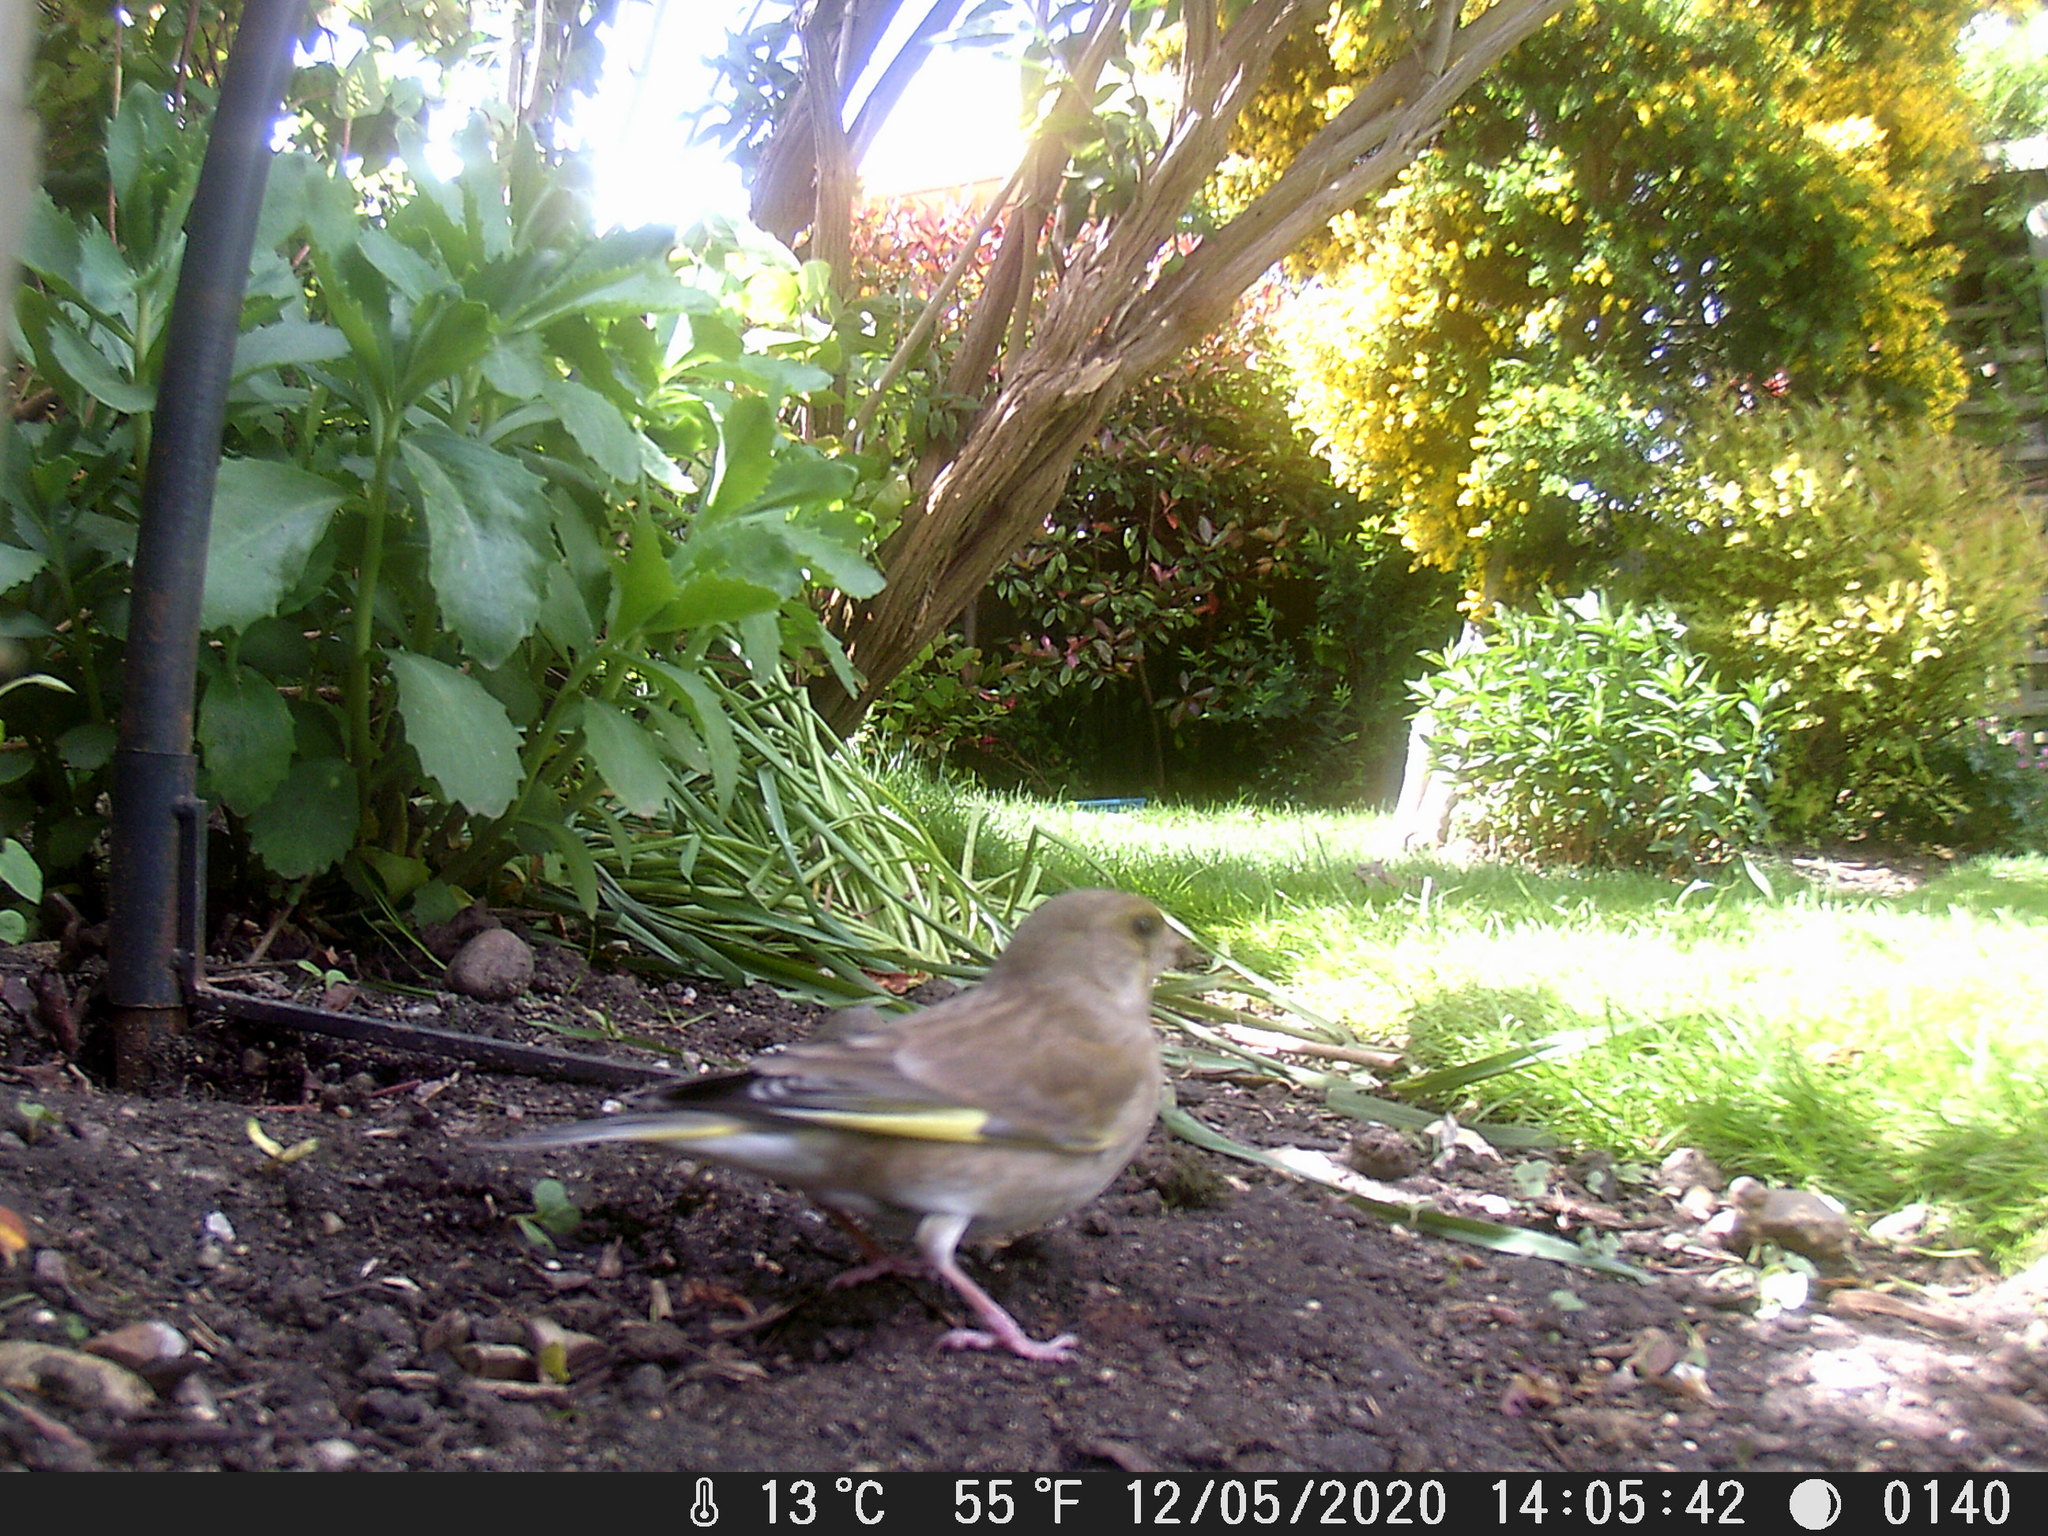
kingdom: Plantae
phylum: Tracheophyta
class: Liliopsida
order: Poales
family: Poaceae
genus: Chloris
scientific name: Chloris chloris
